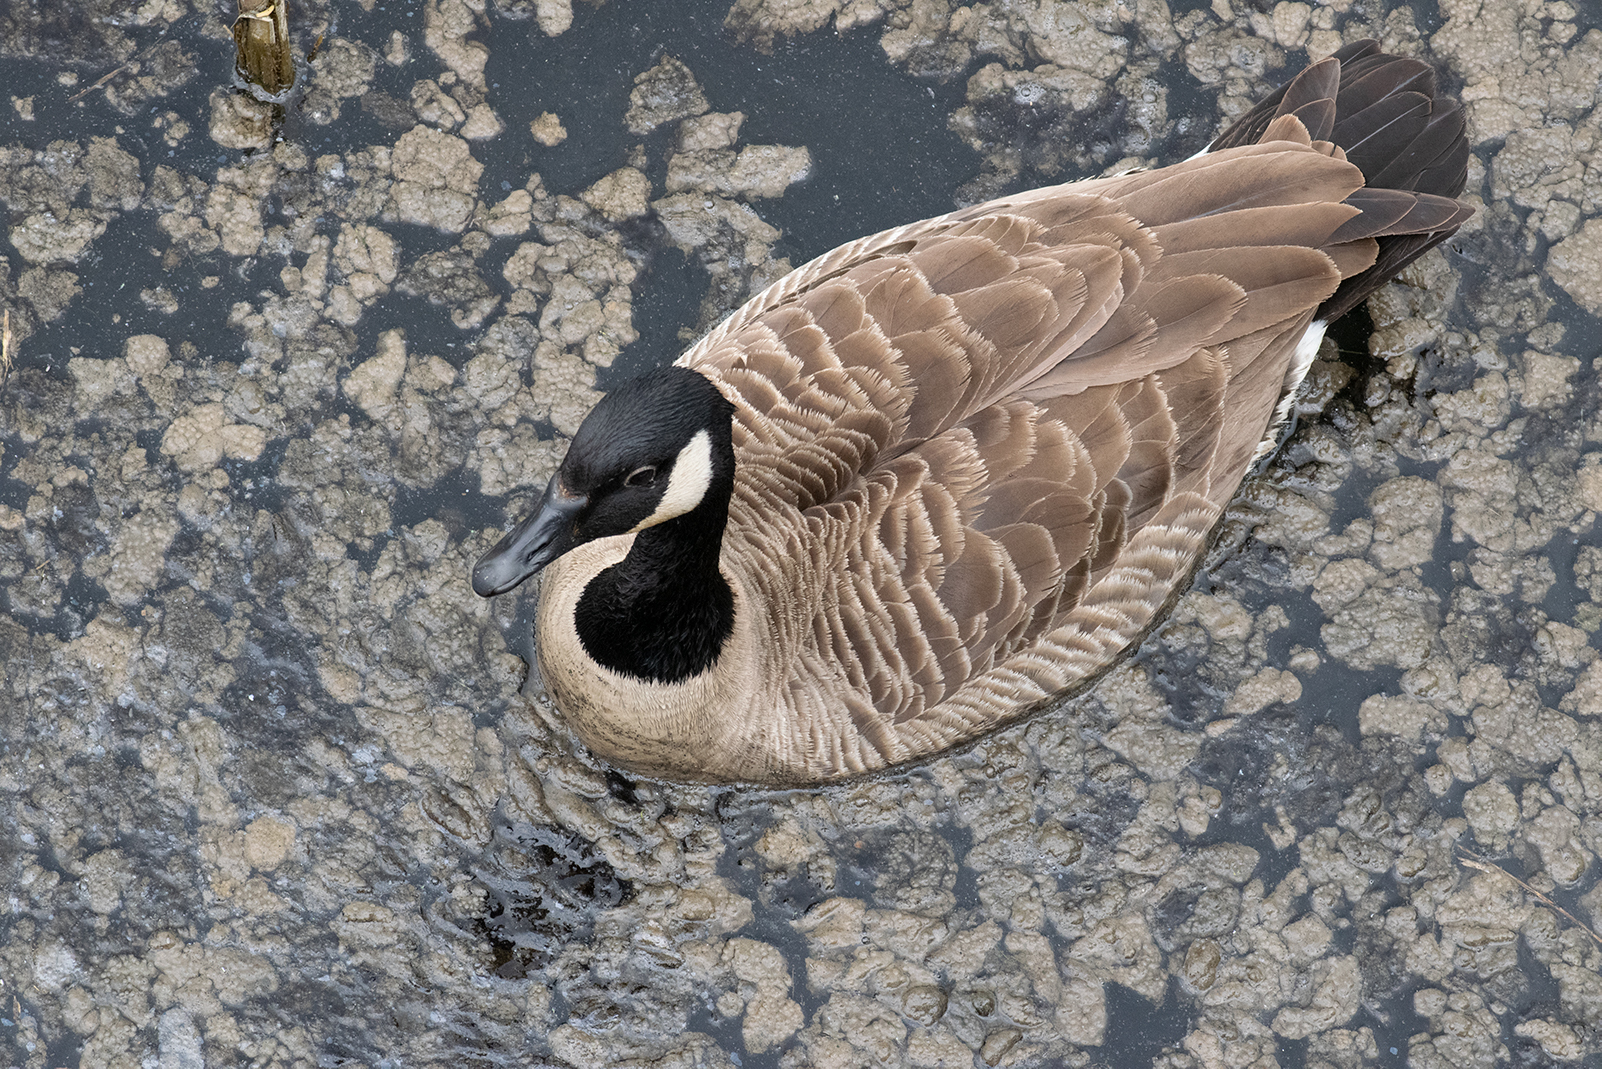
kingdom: Animalia
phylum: Chordata
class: Aves
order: Anseriformes
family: Anatidae
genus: Branta
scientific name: Branta canadensis
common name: Canada goose
